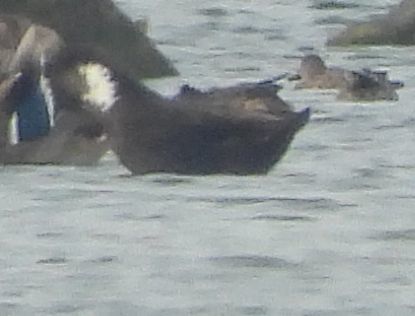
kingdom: Animalia
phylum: Chordata
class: Aves
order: Anseriformes
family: Anatidae
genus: Anas
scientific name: Anas platyrhynchos
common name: Mallard
